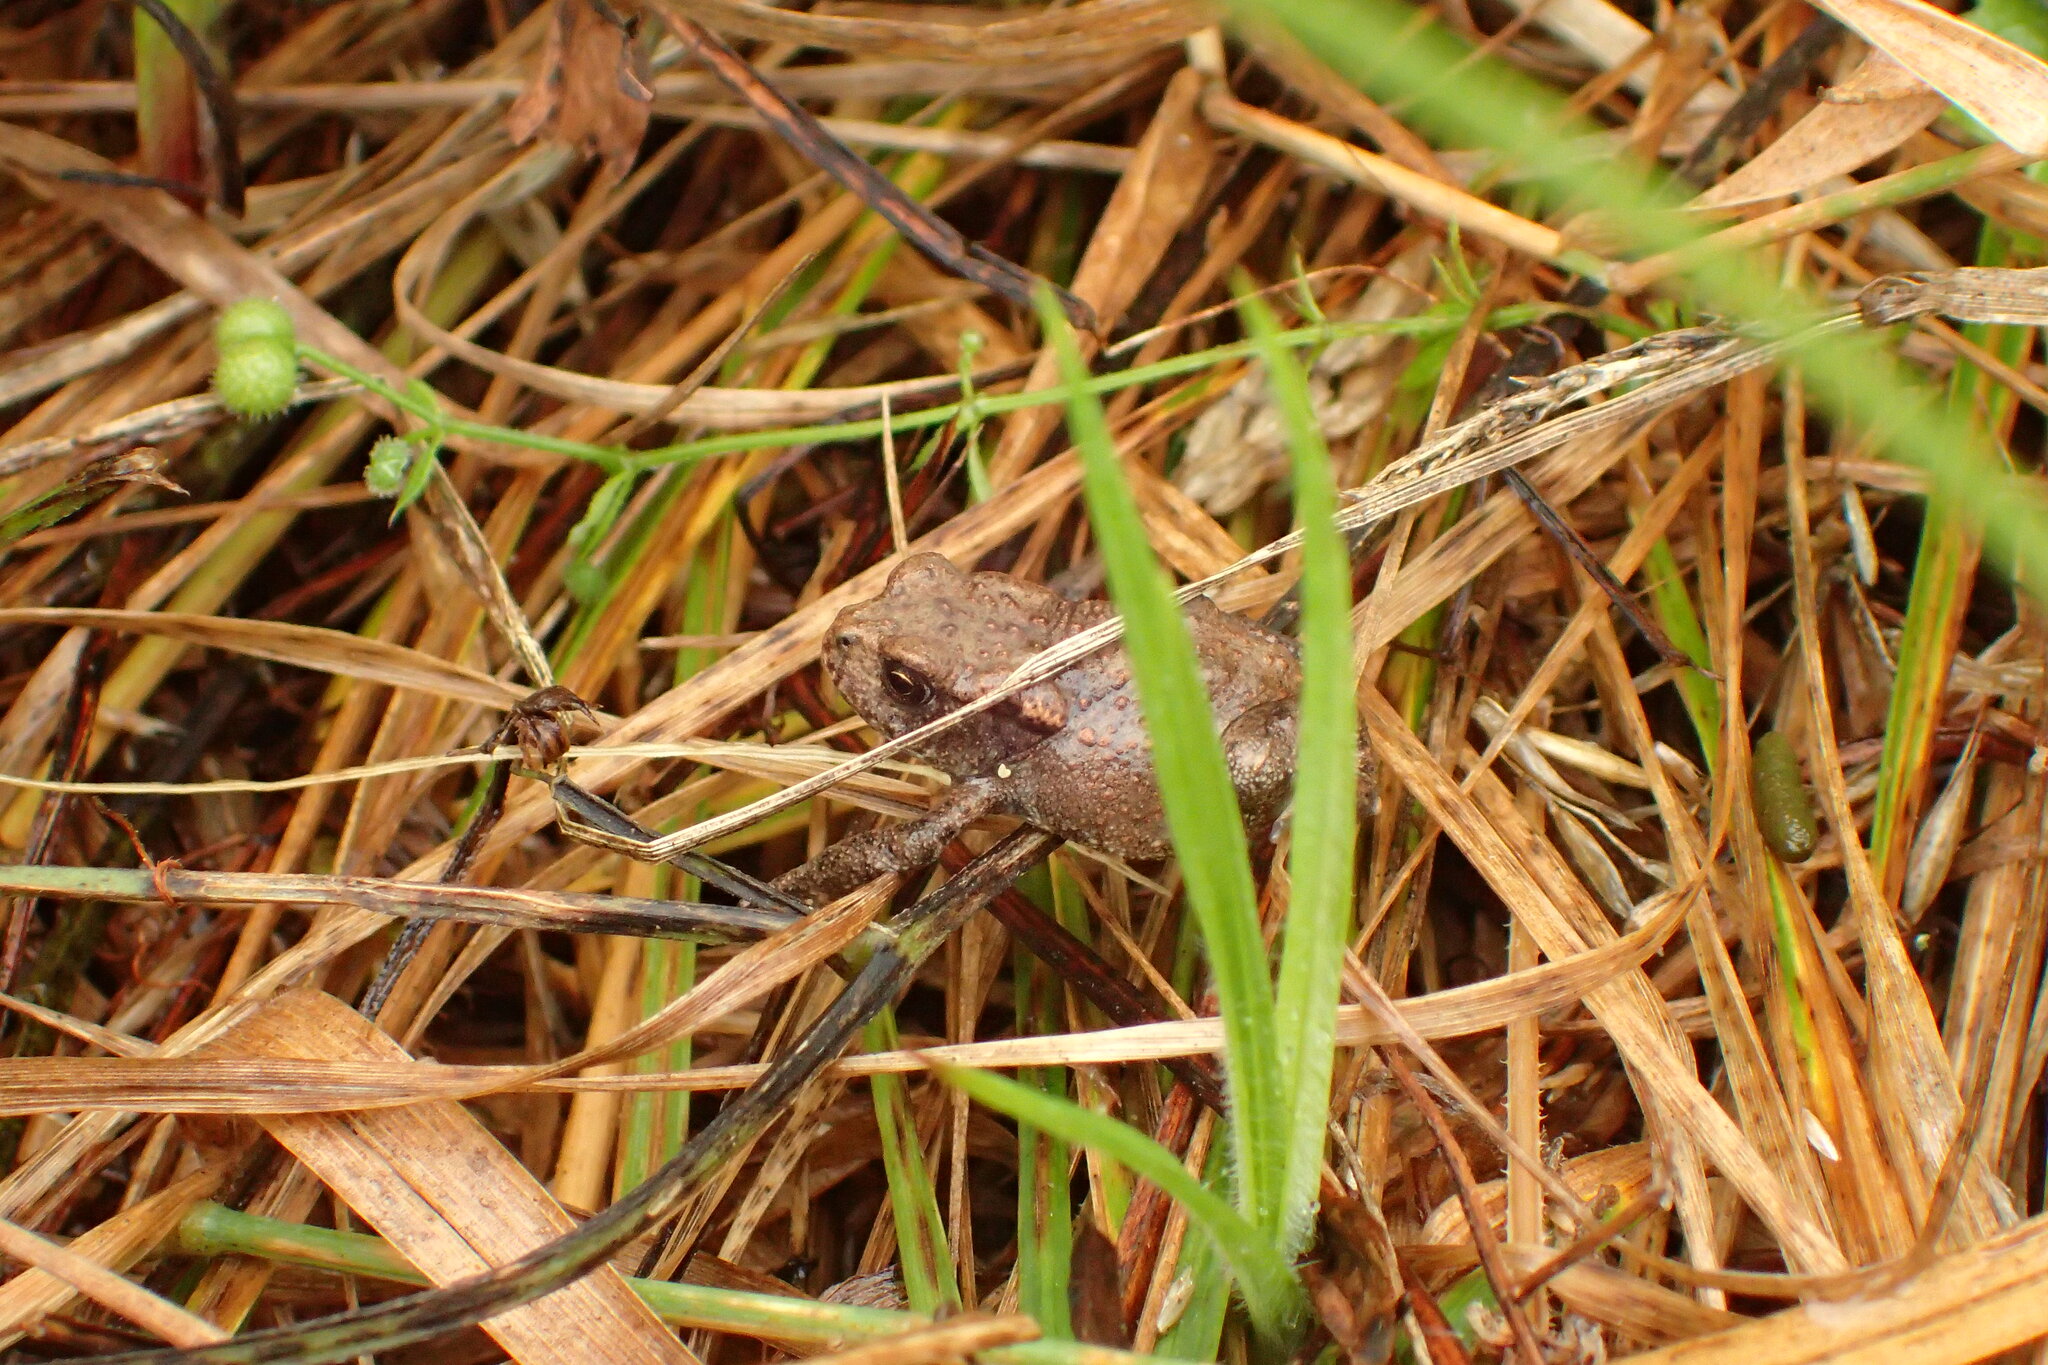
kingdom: Animalia
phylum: Chordata
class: Amphibia
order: Anura
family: Bufonidae
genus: Bufo
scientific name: Bufo bufo
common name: Common toad
